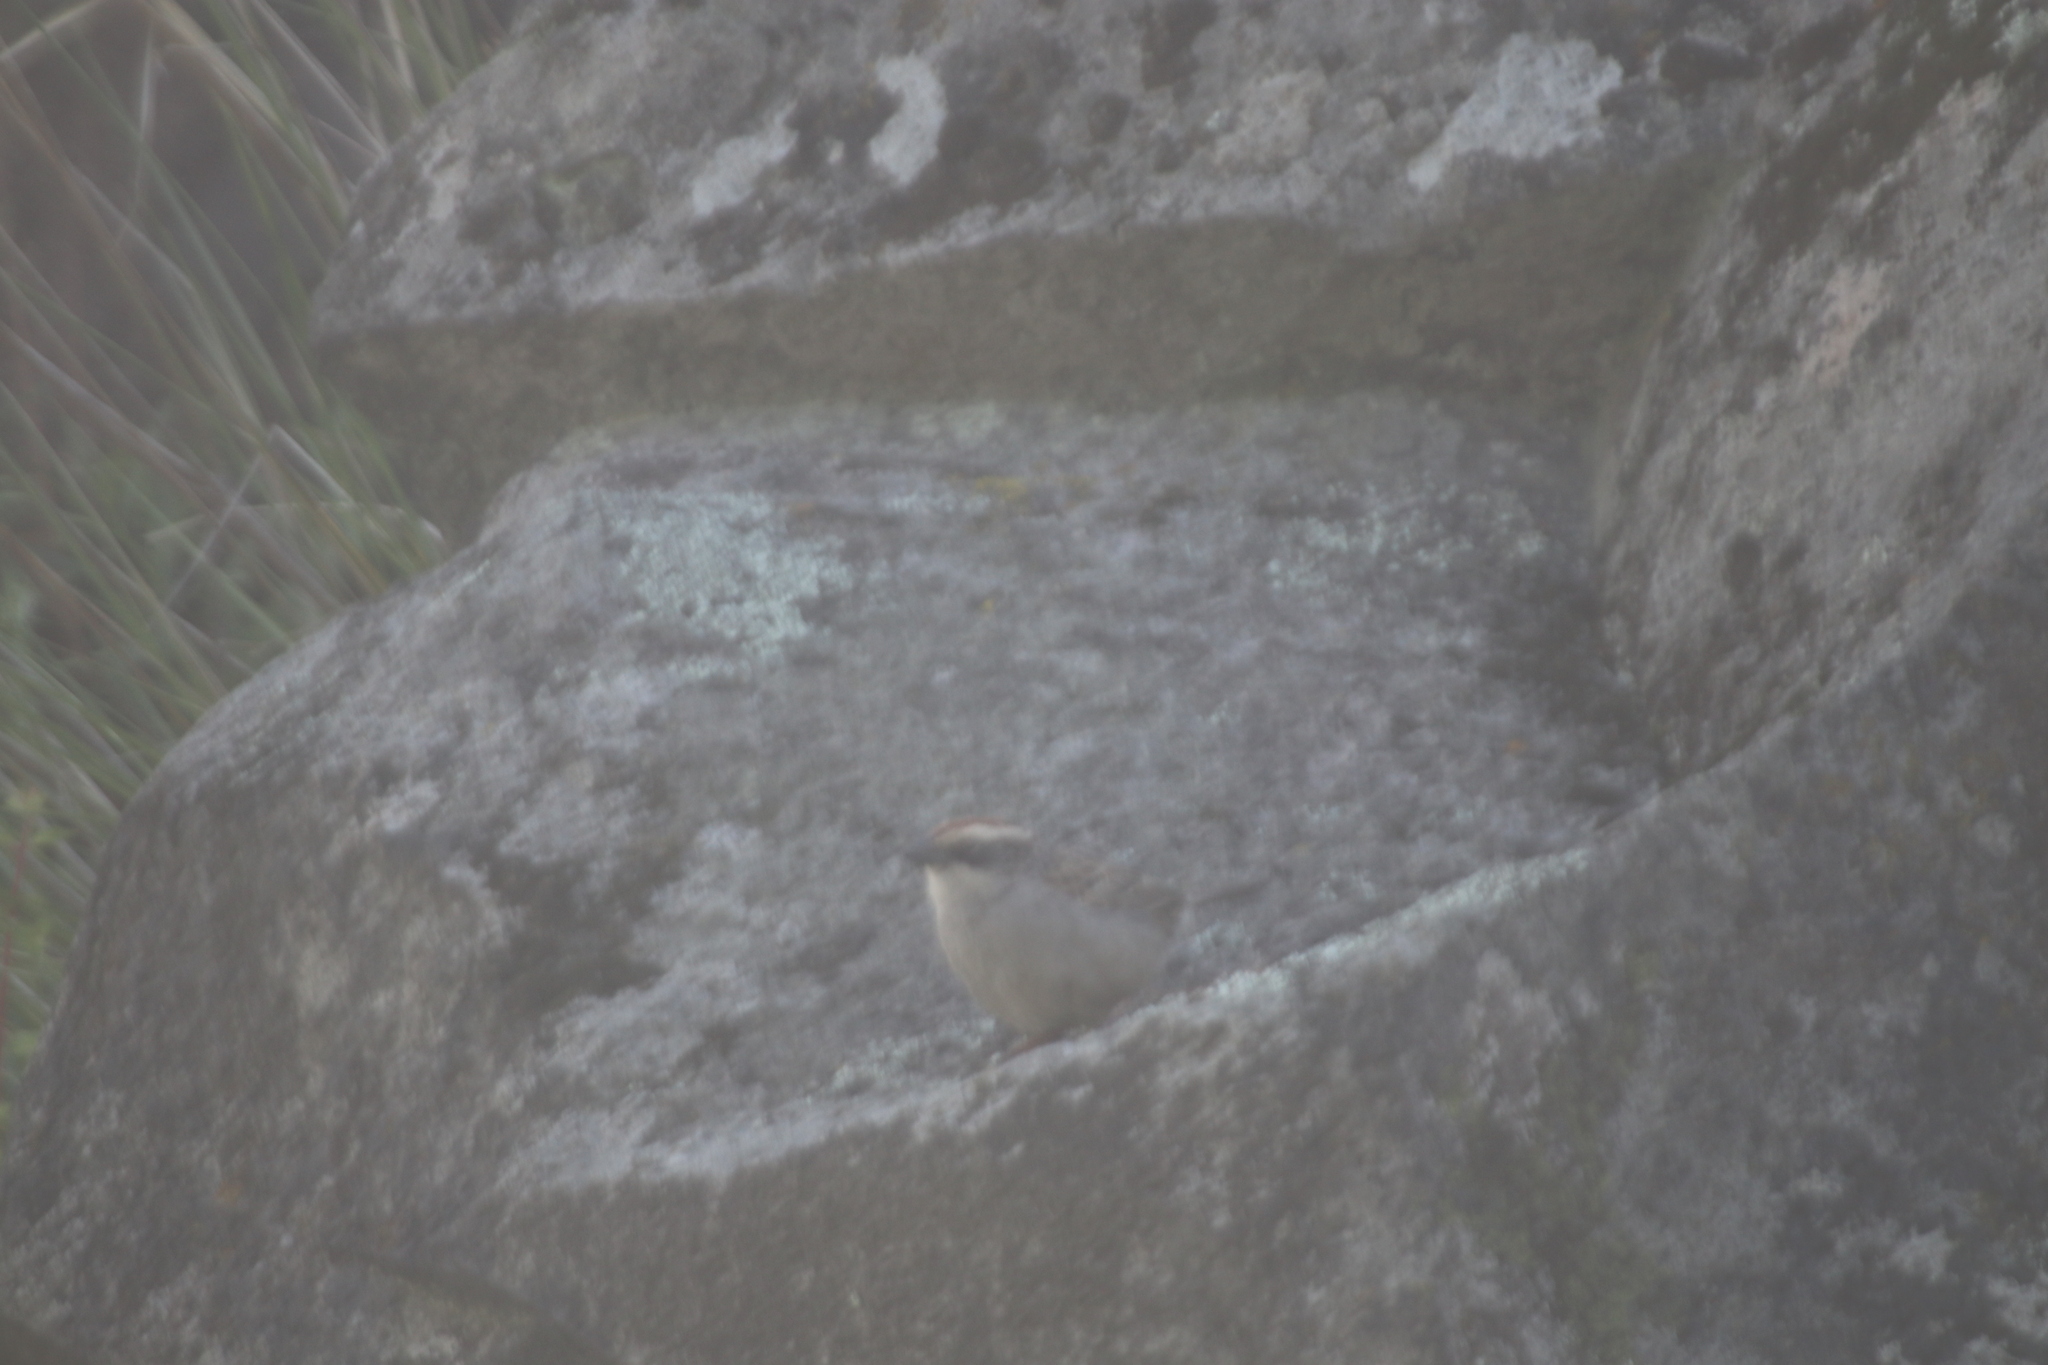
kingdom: Animalia
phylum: Chordata
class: Aves
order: Passeriformes
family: Passerellidae
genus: Oriturus
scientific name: Oriturus superciliosus
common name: Striped sparrow
